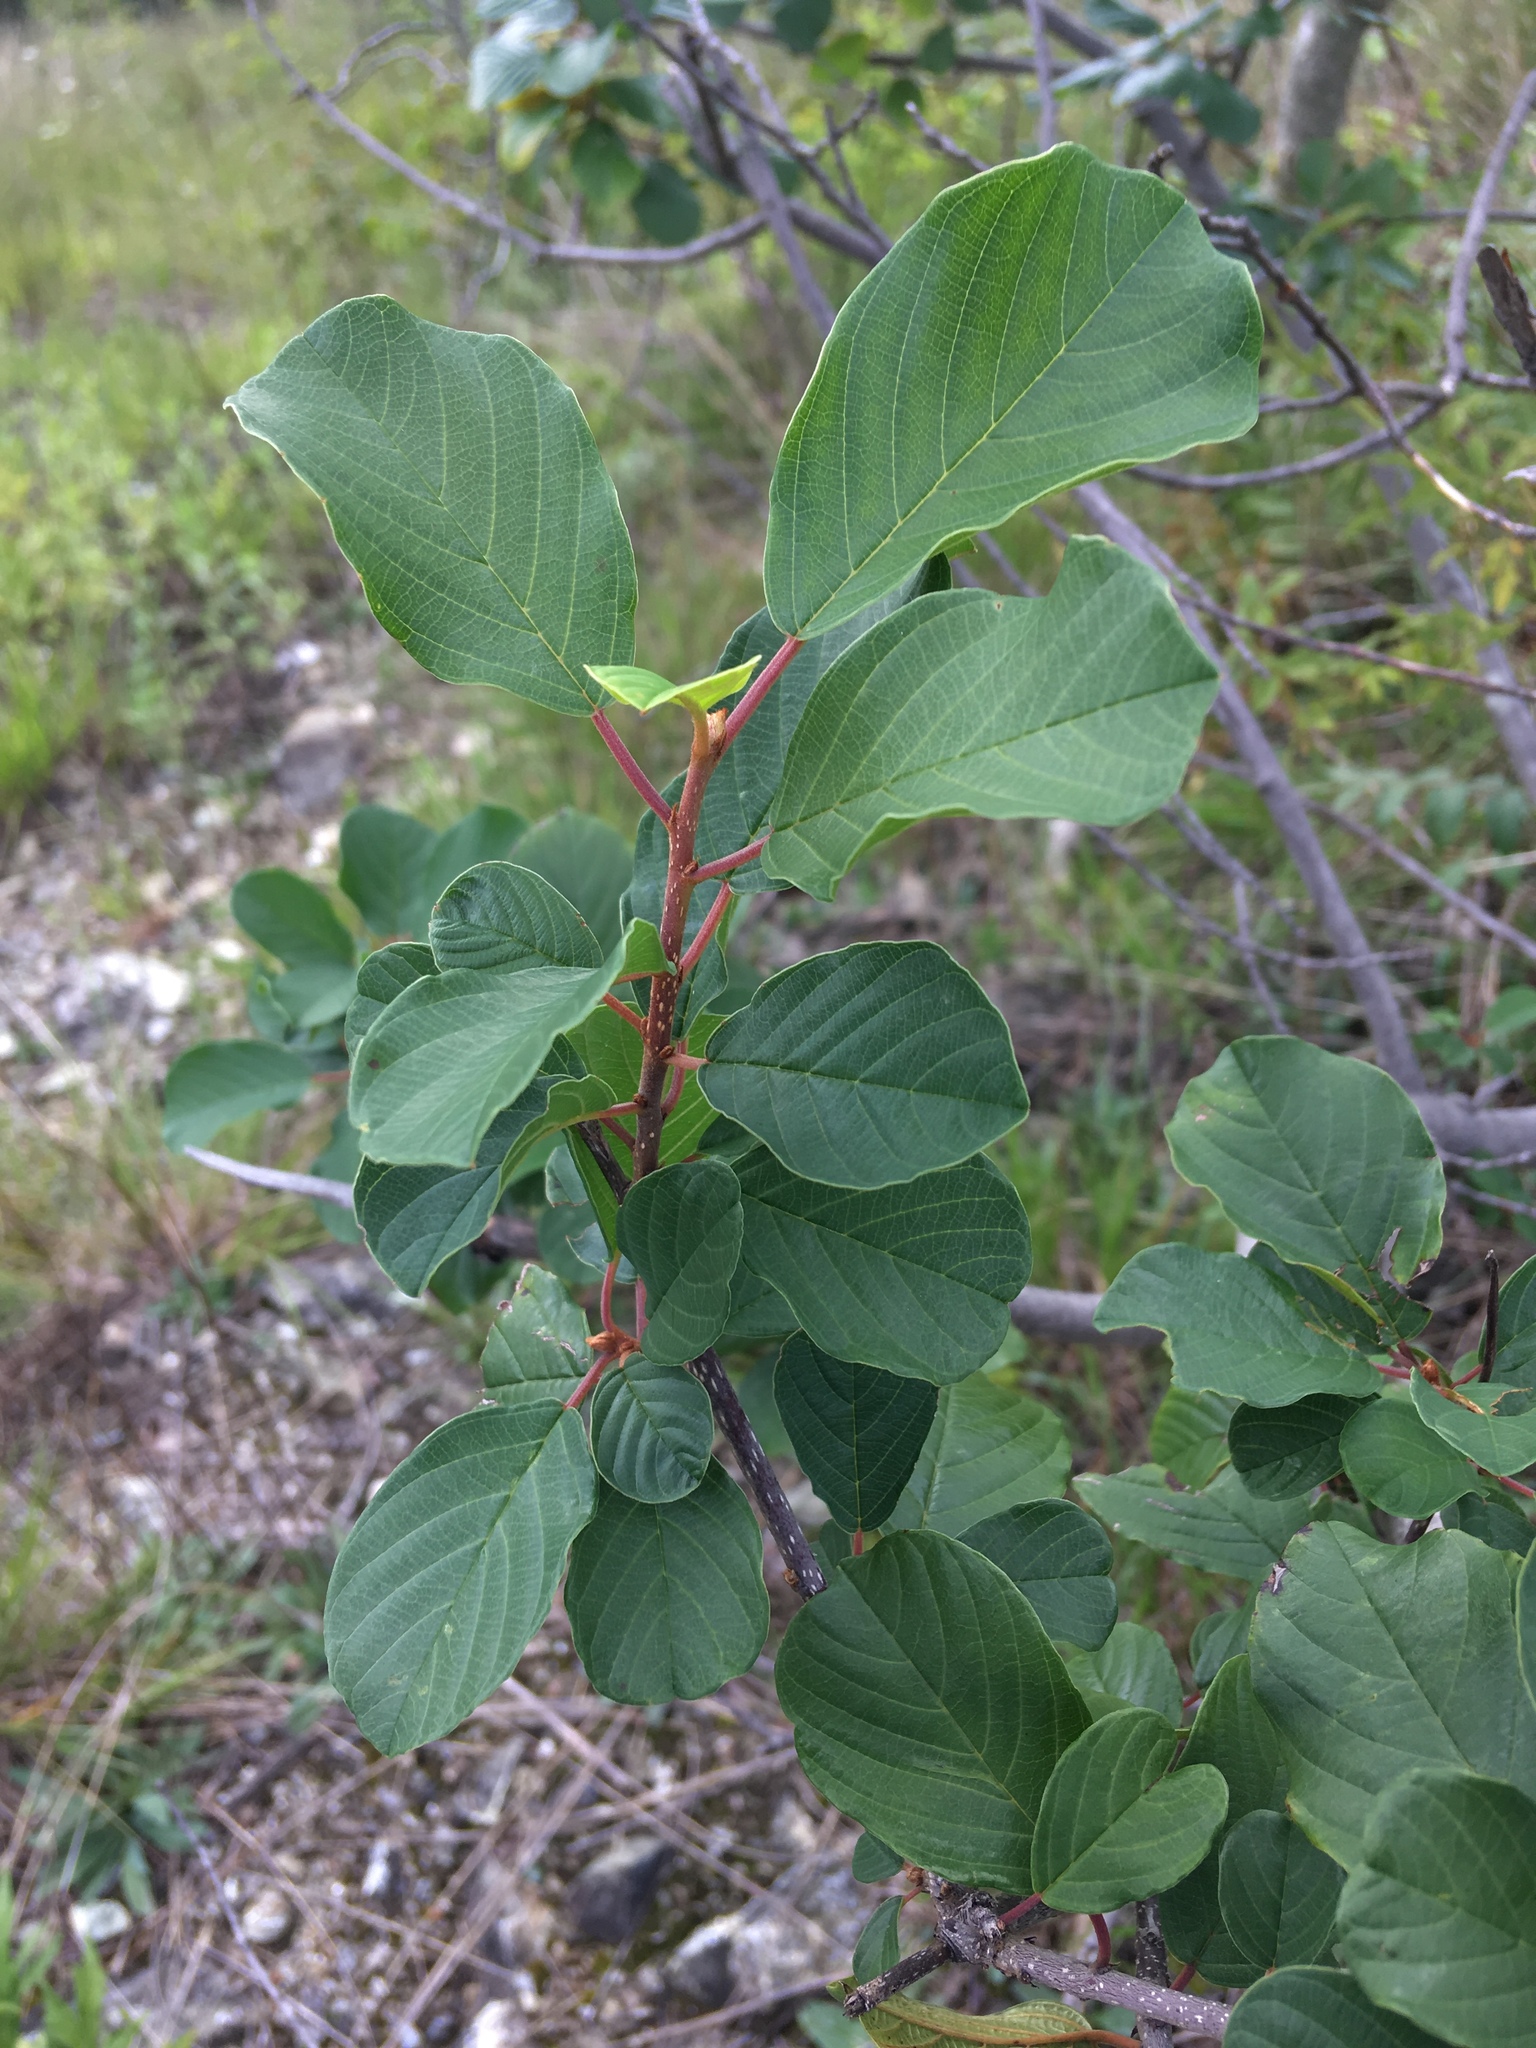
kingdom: Plantae
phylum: Tracheophyta
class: Magnoliopsida
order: Rosales
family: Rhamnaceae
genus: Frangula
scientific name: Frangula alnus
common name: Alder buckthorn
